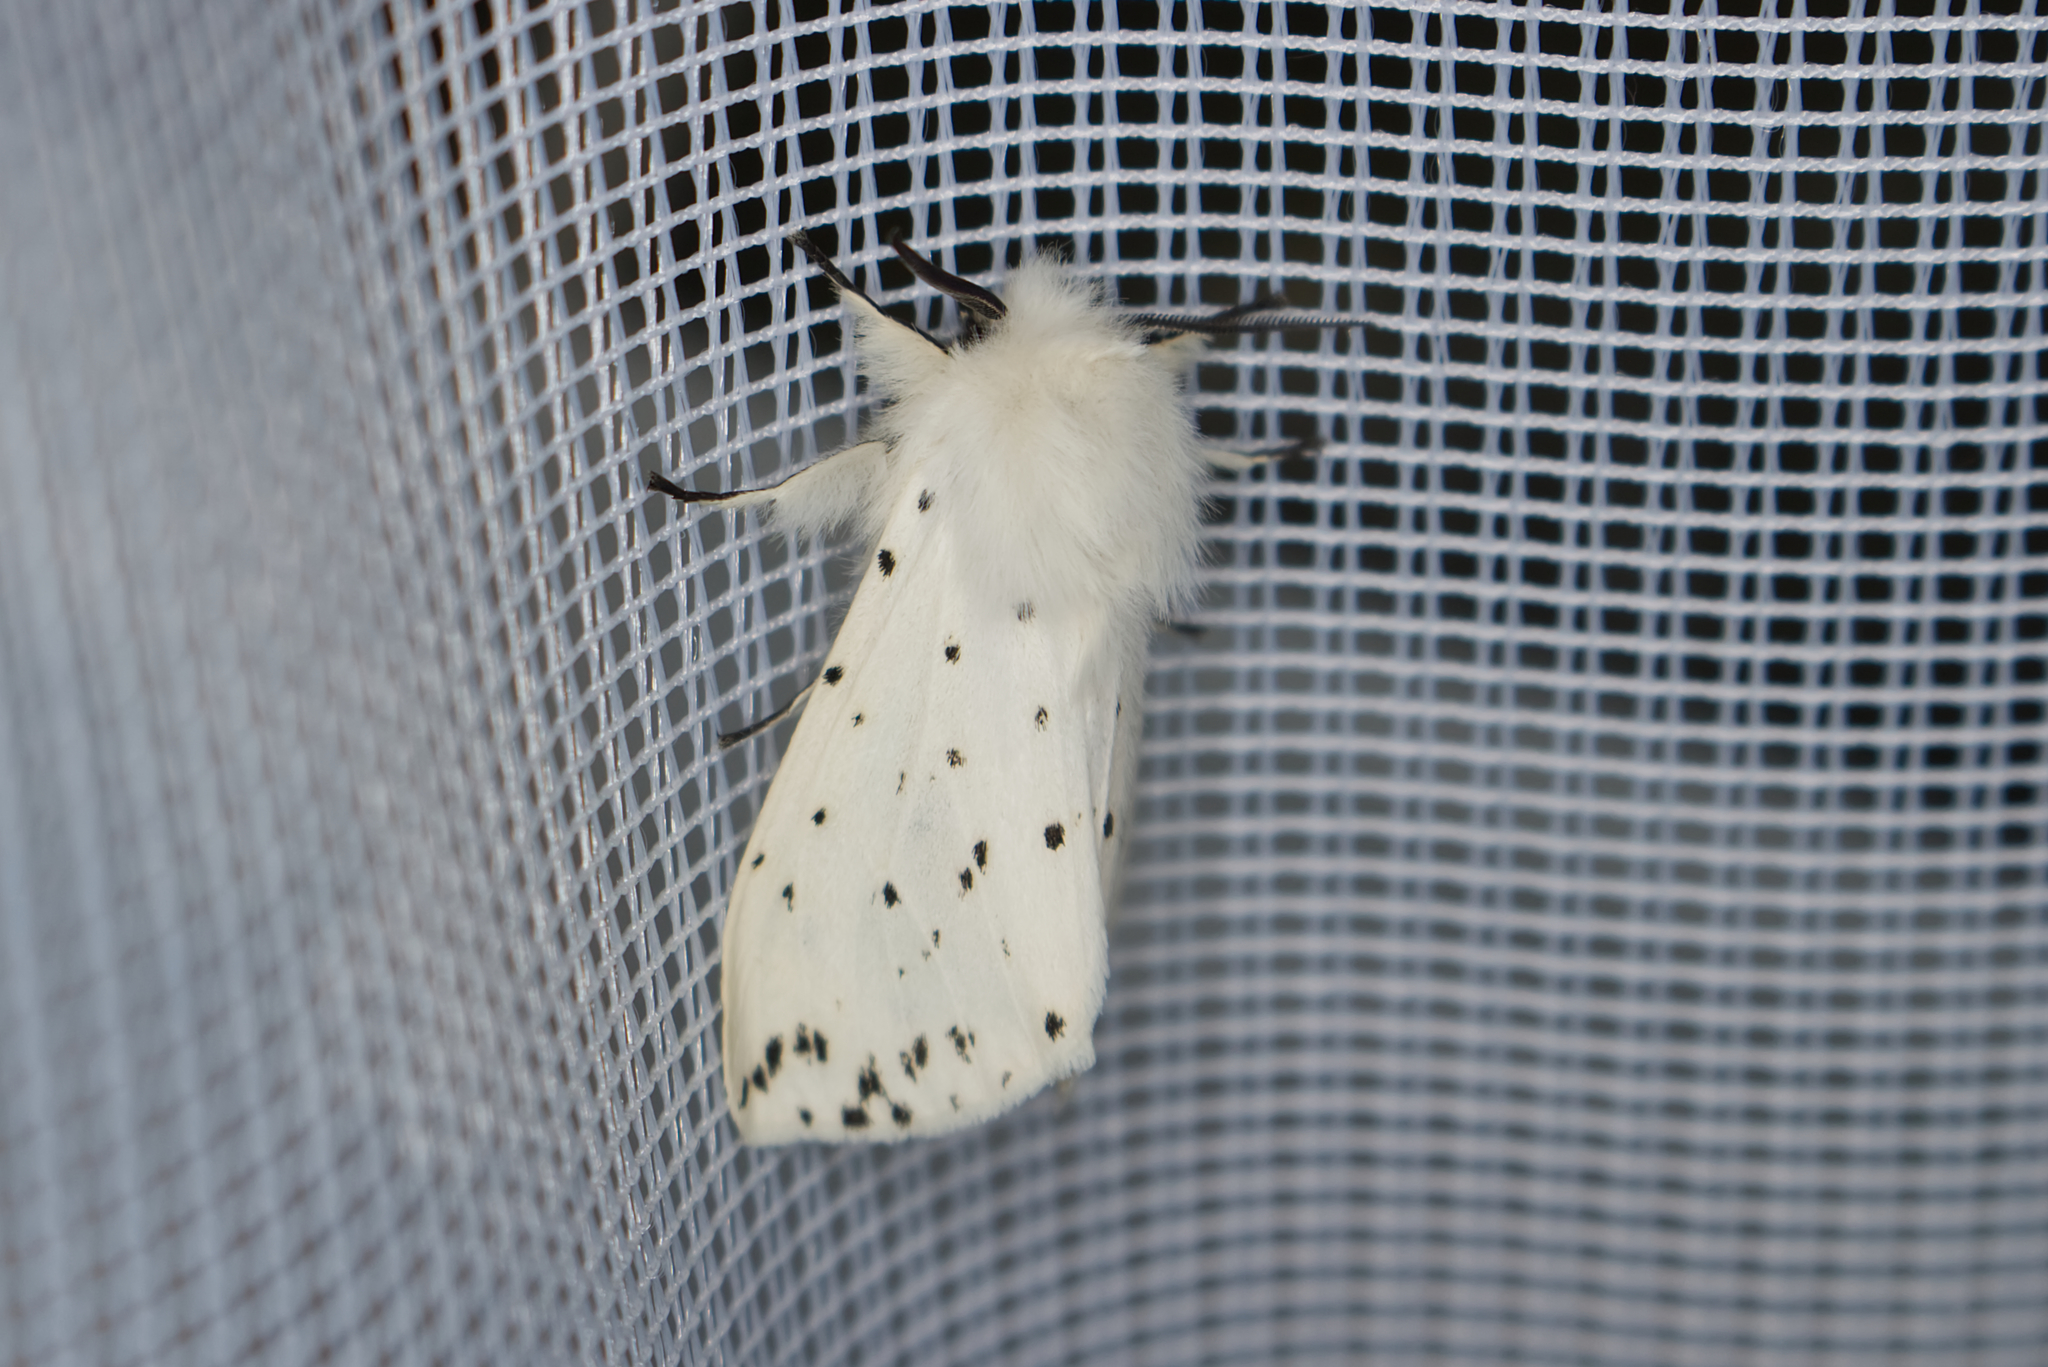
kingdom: Animalia
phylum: Arthropoda
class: Insecta
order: Lepidoptera
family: Erebidae
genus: Spilosoma
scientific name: Spilosoma lubricipeda
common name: White ermine
